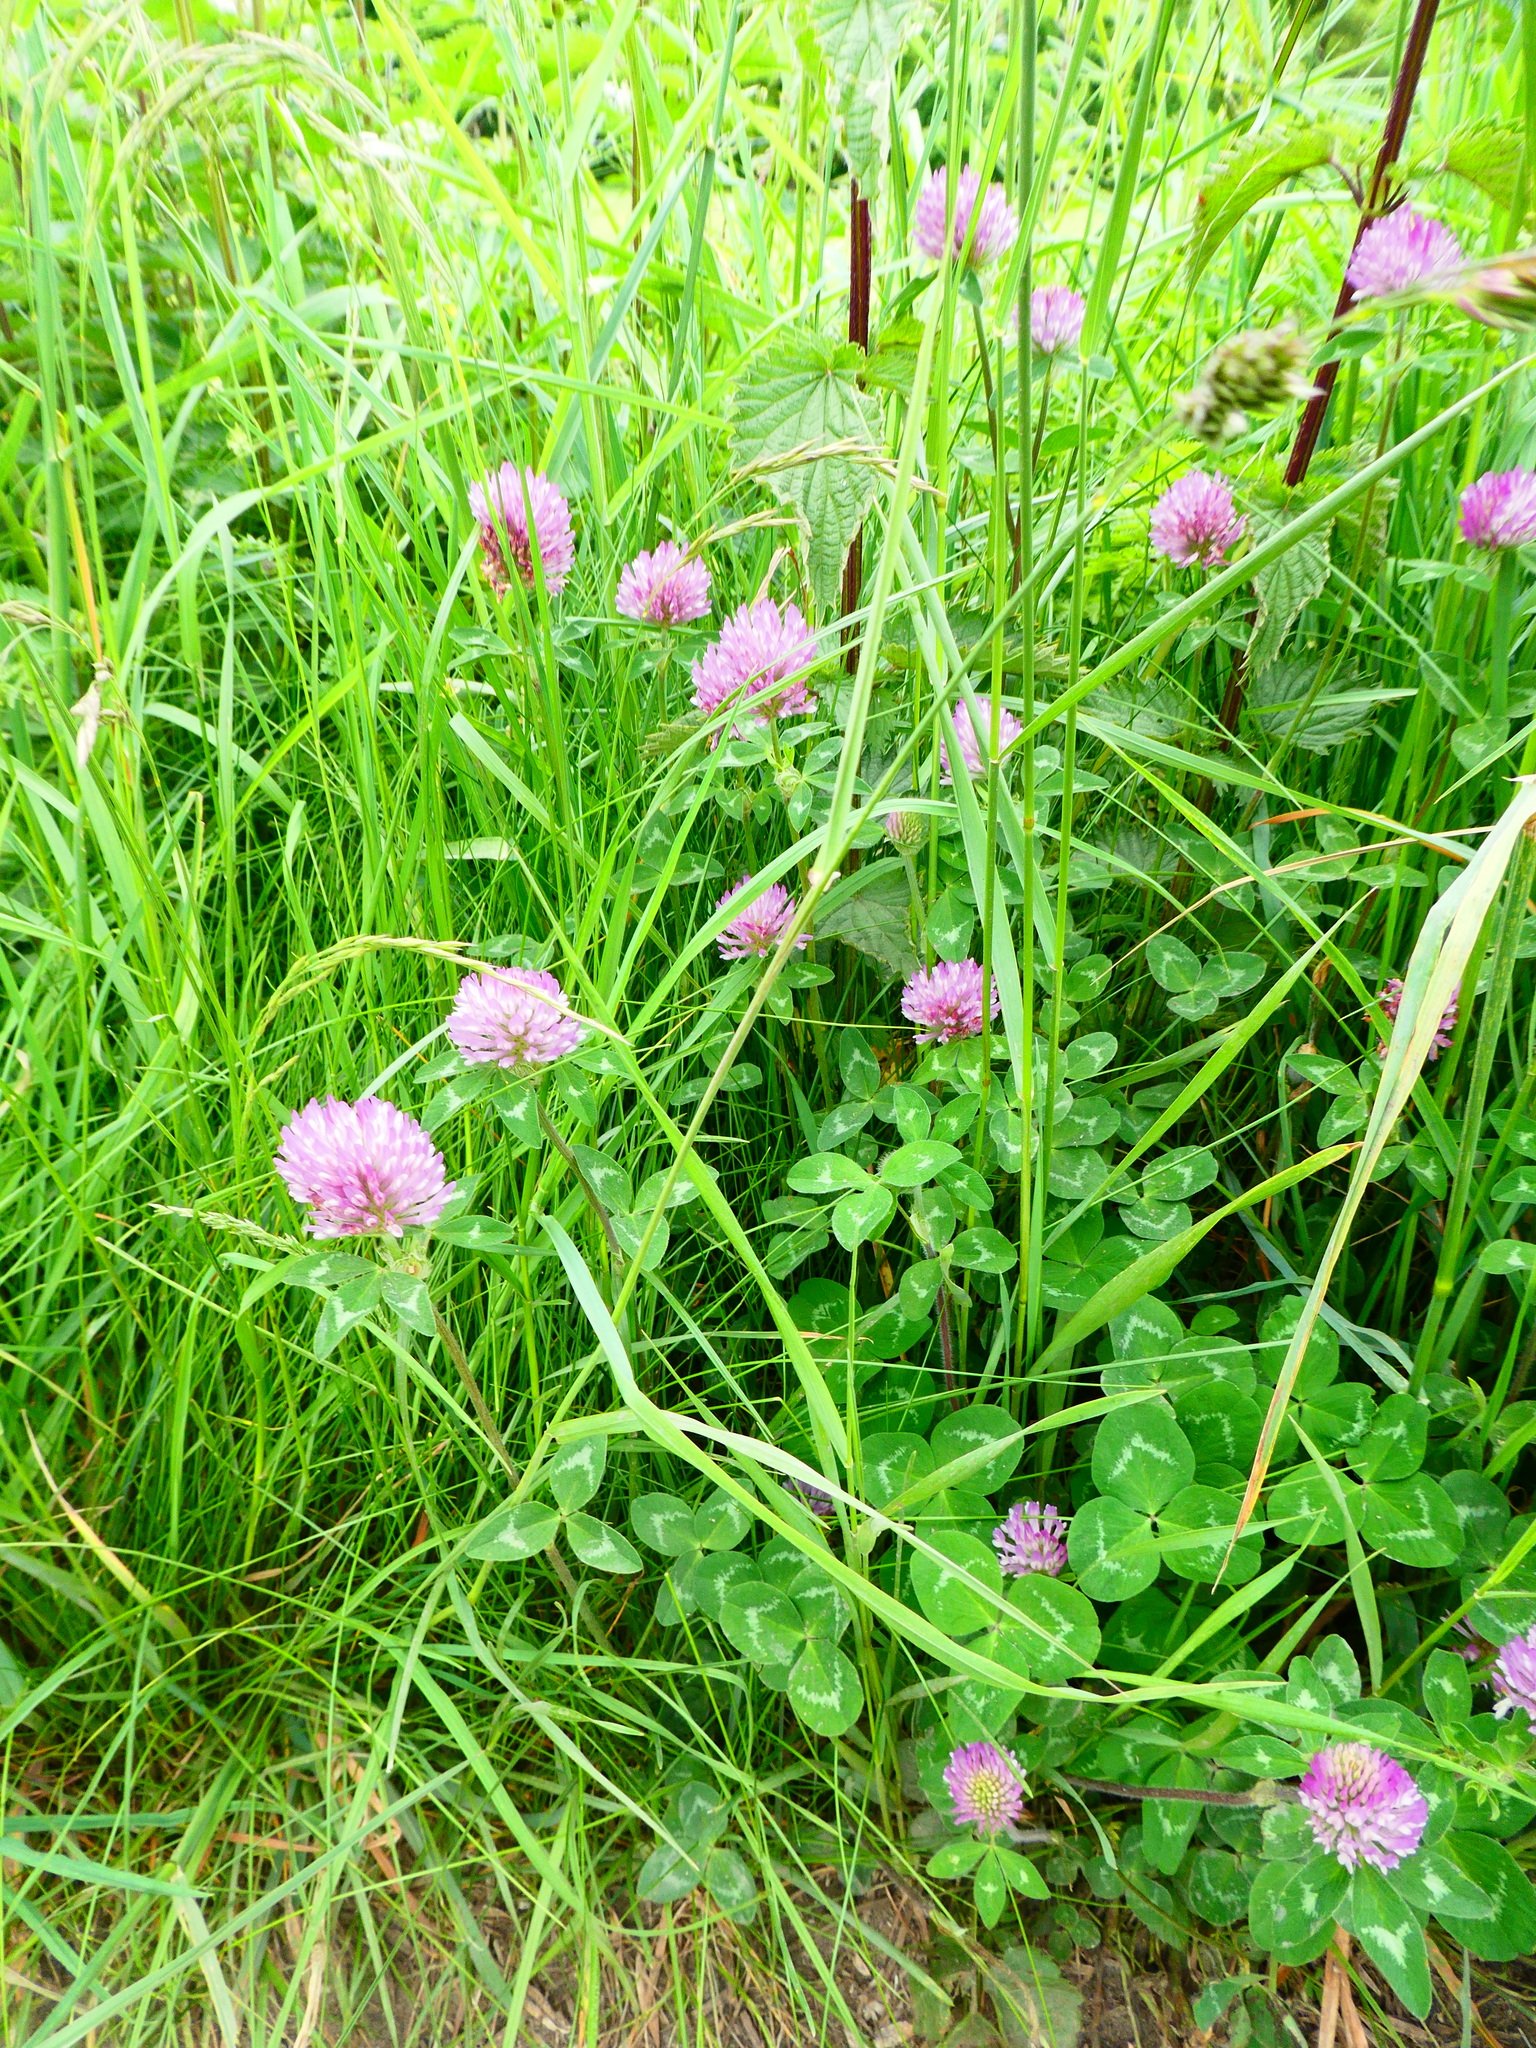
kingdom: Plantae
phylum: Tracheophyta
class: Magnoliopsida
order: Fabales
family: Fabaceae
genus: Trifolium
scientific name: Trifolium pratense
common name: Red clover
